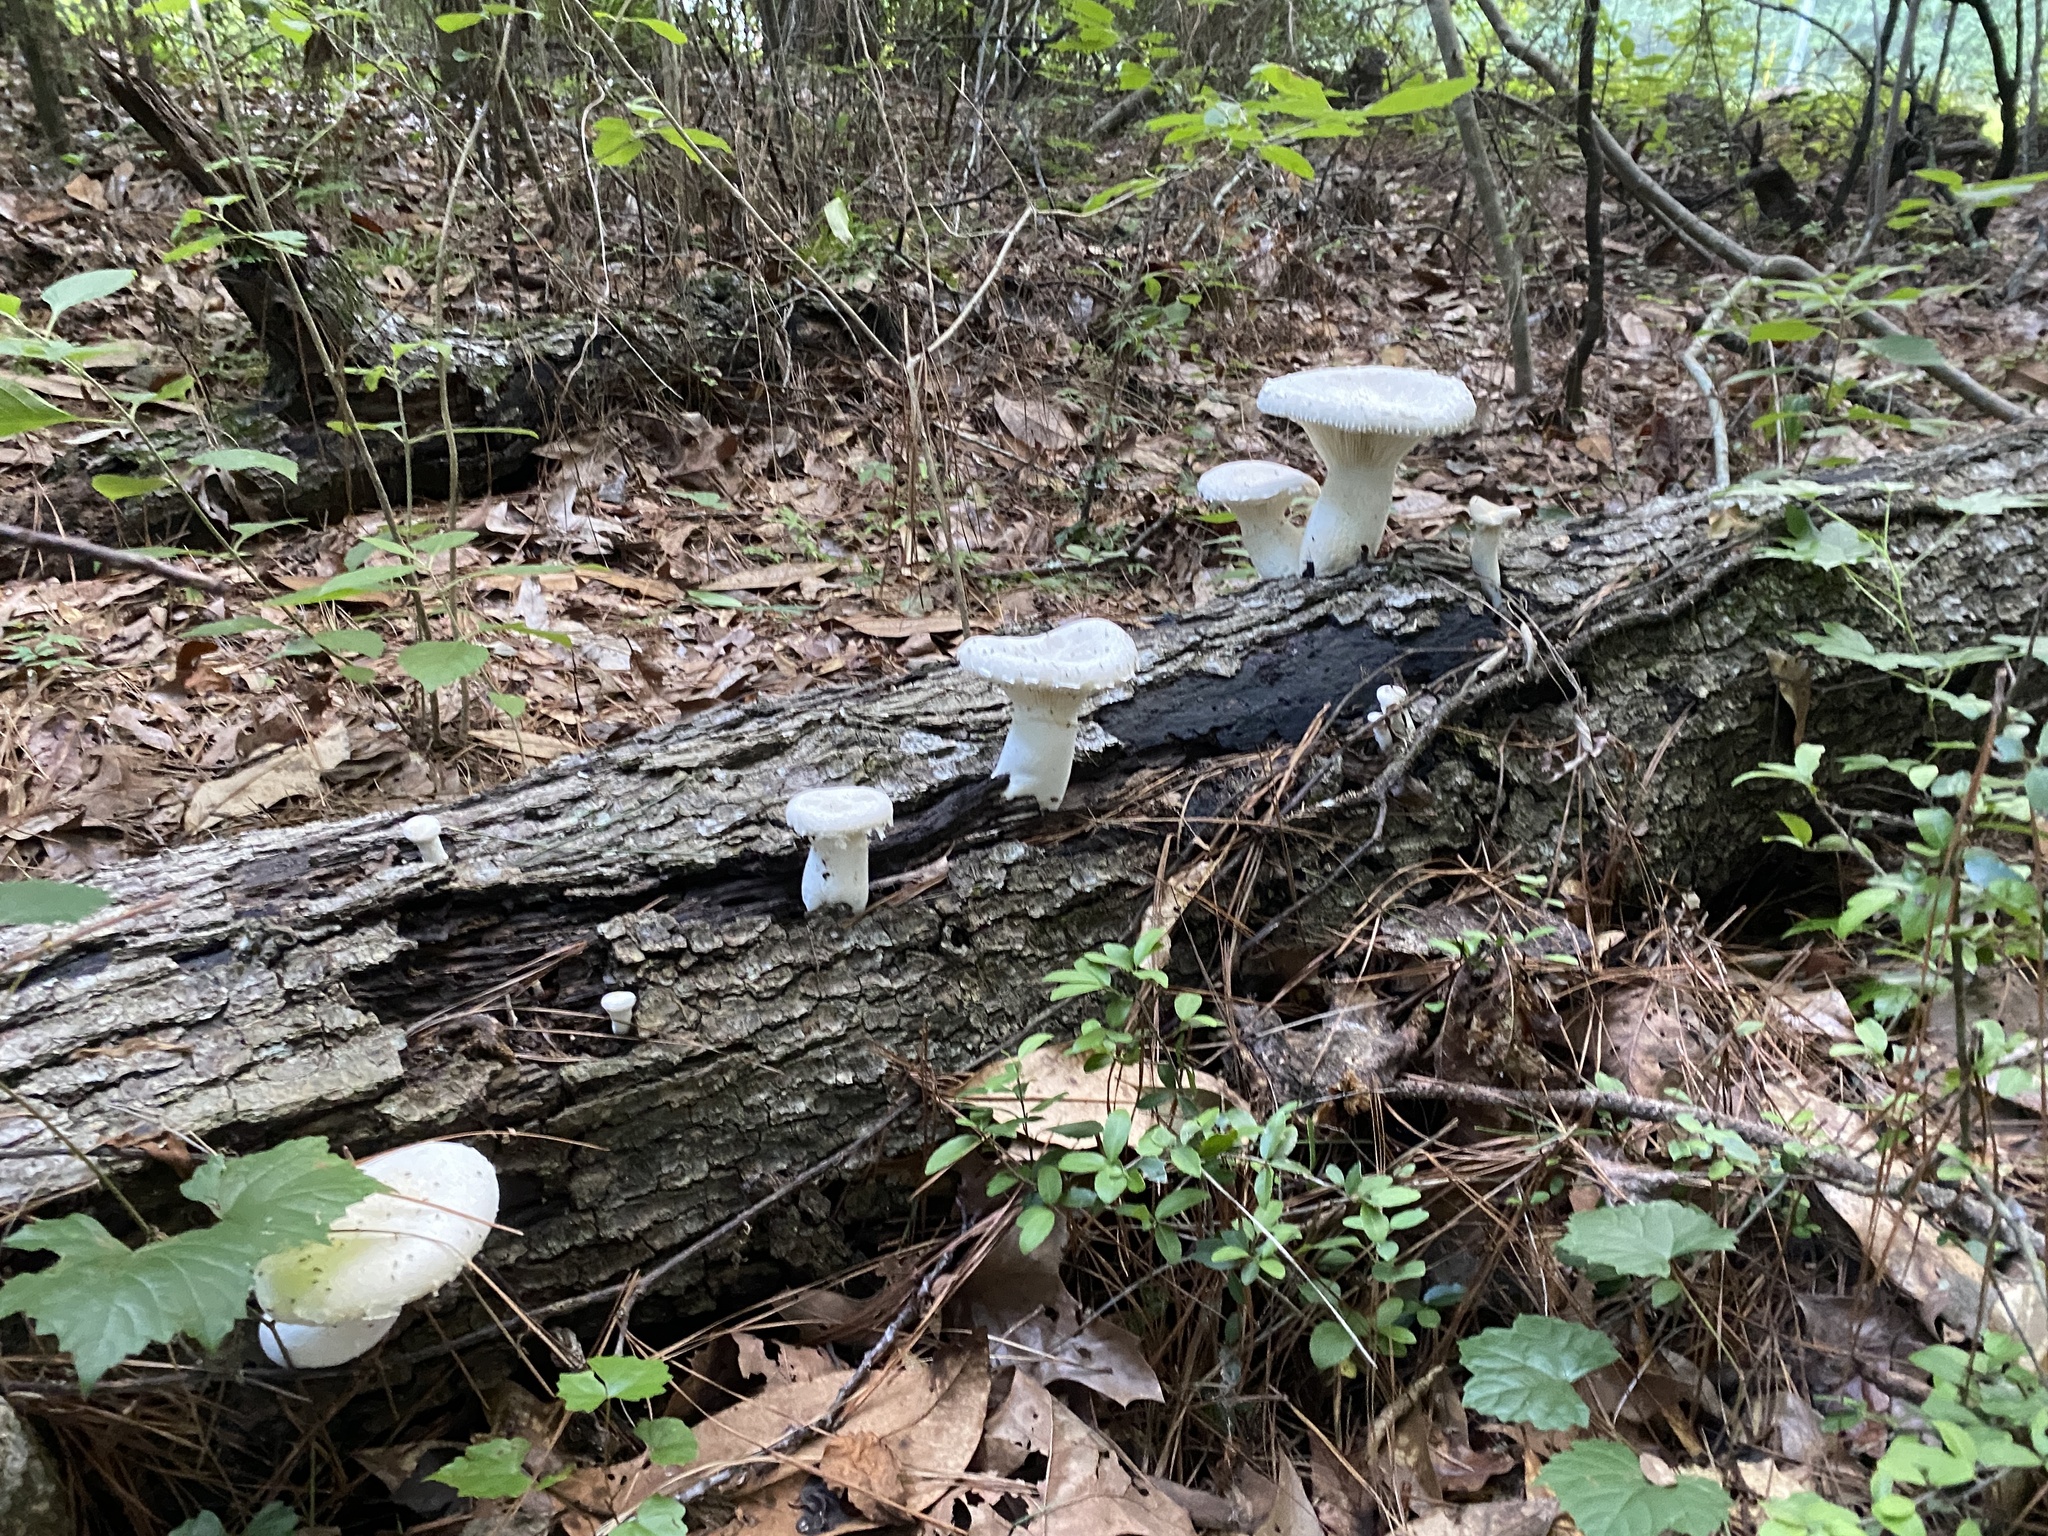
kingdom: Fungi
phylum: Basidiomycota
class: Agaricomycetes
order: Polyporales
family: Polyporaceae
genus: Lentinus
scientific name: Lentinus levis
